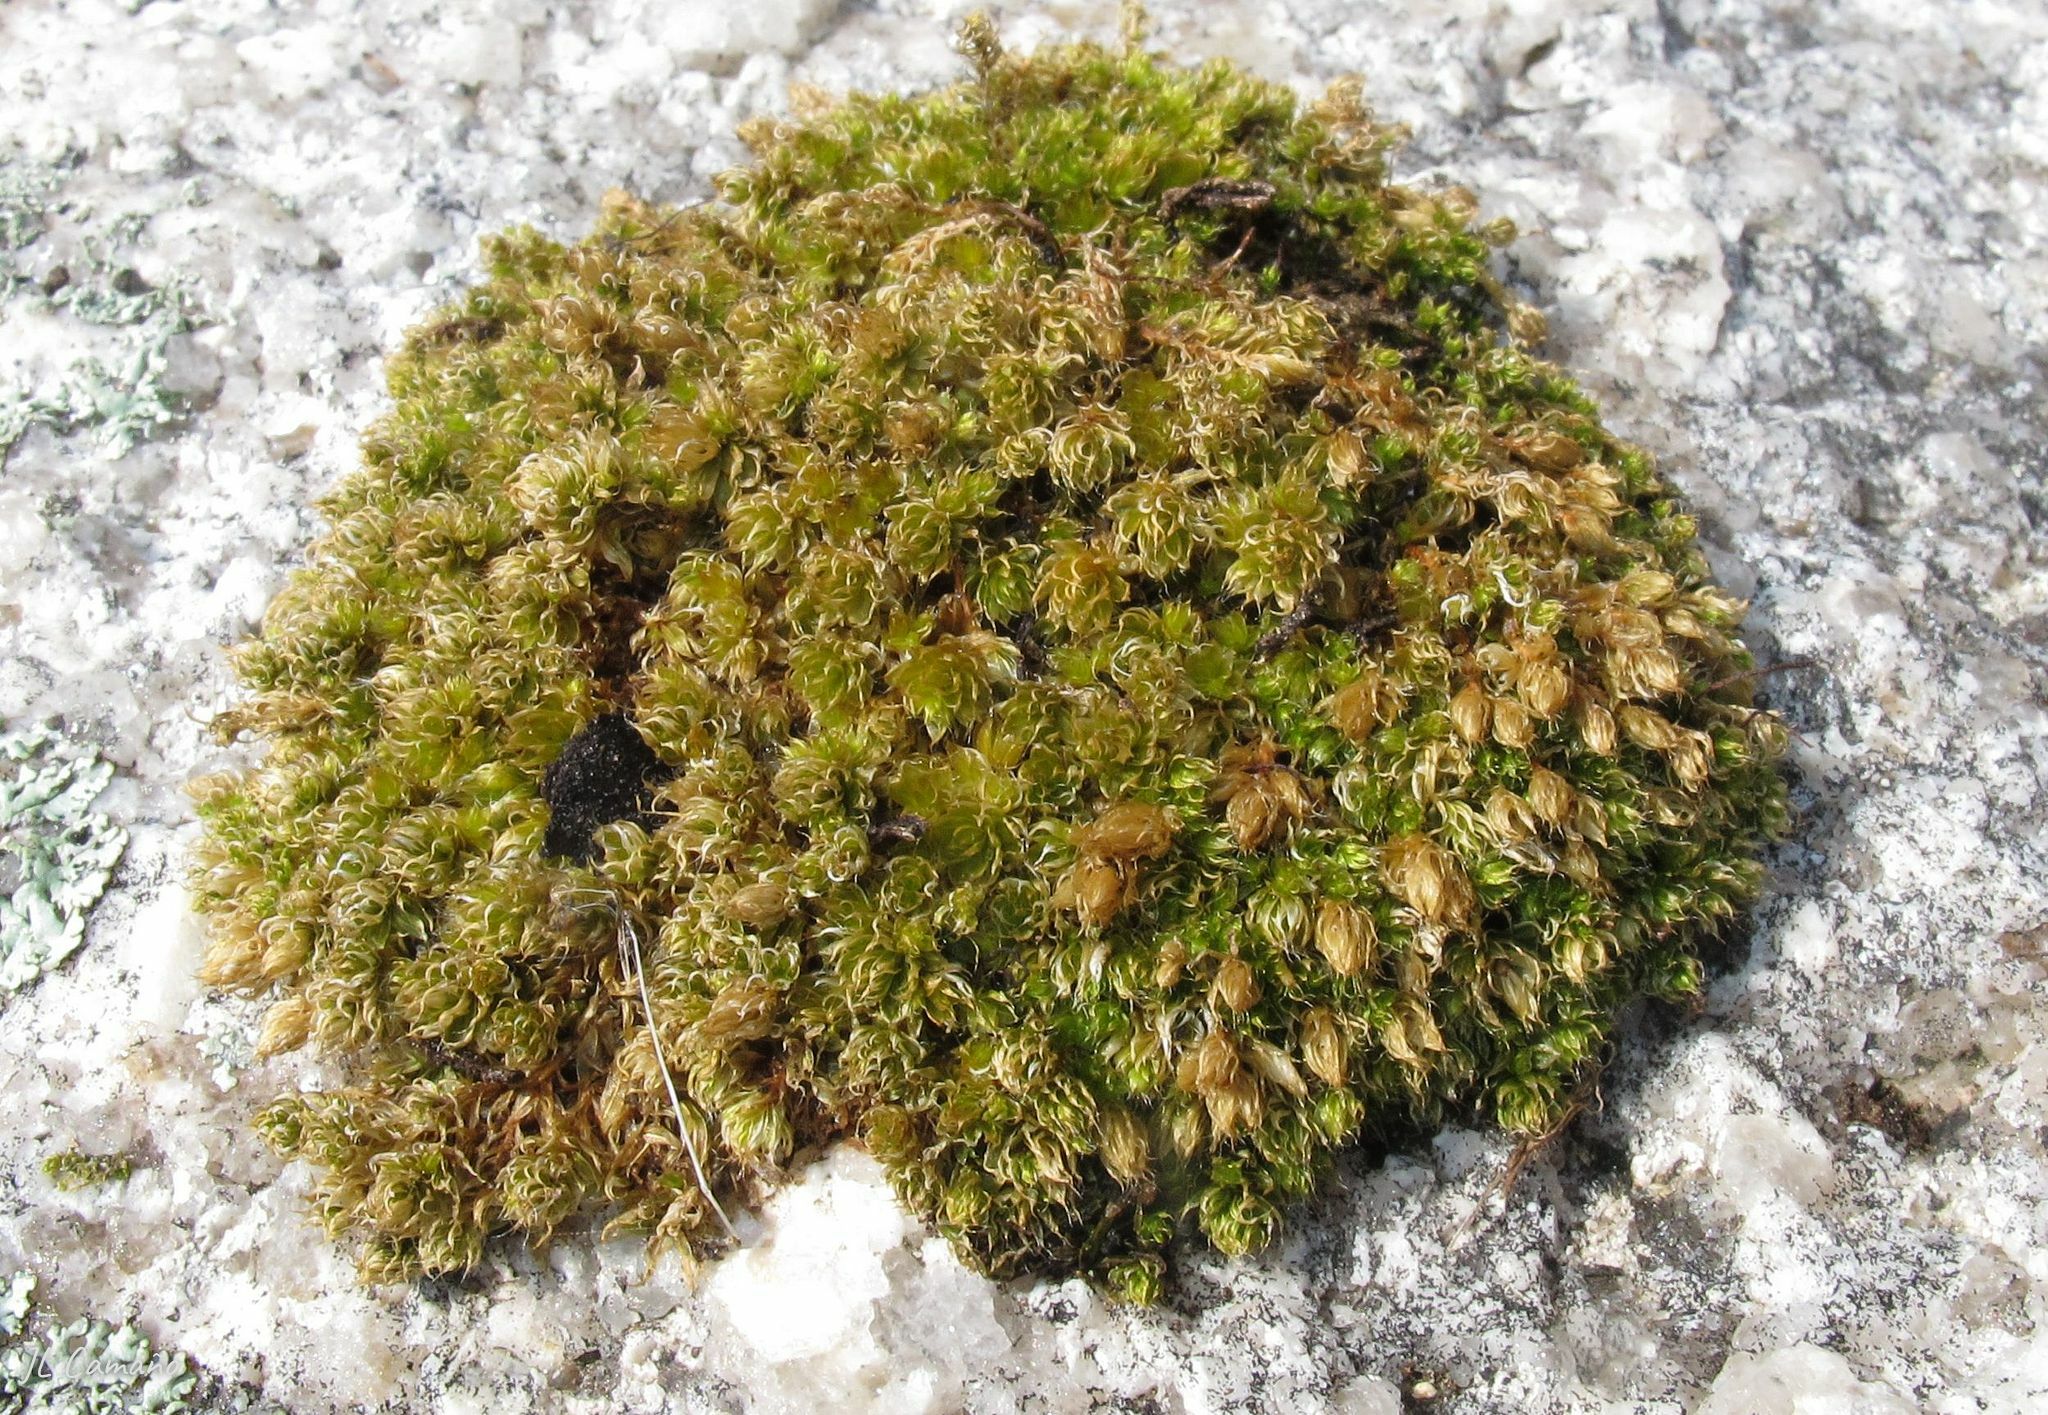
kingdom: Plantae
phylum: Bryophyta
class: Bryopsida
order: Bryales
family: Bryaceae
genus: Rosulabryum
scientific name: Rosulabryum capillare
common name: Capillary thread-moss
